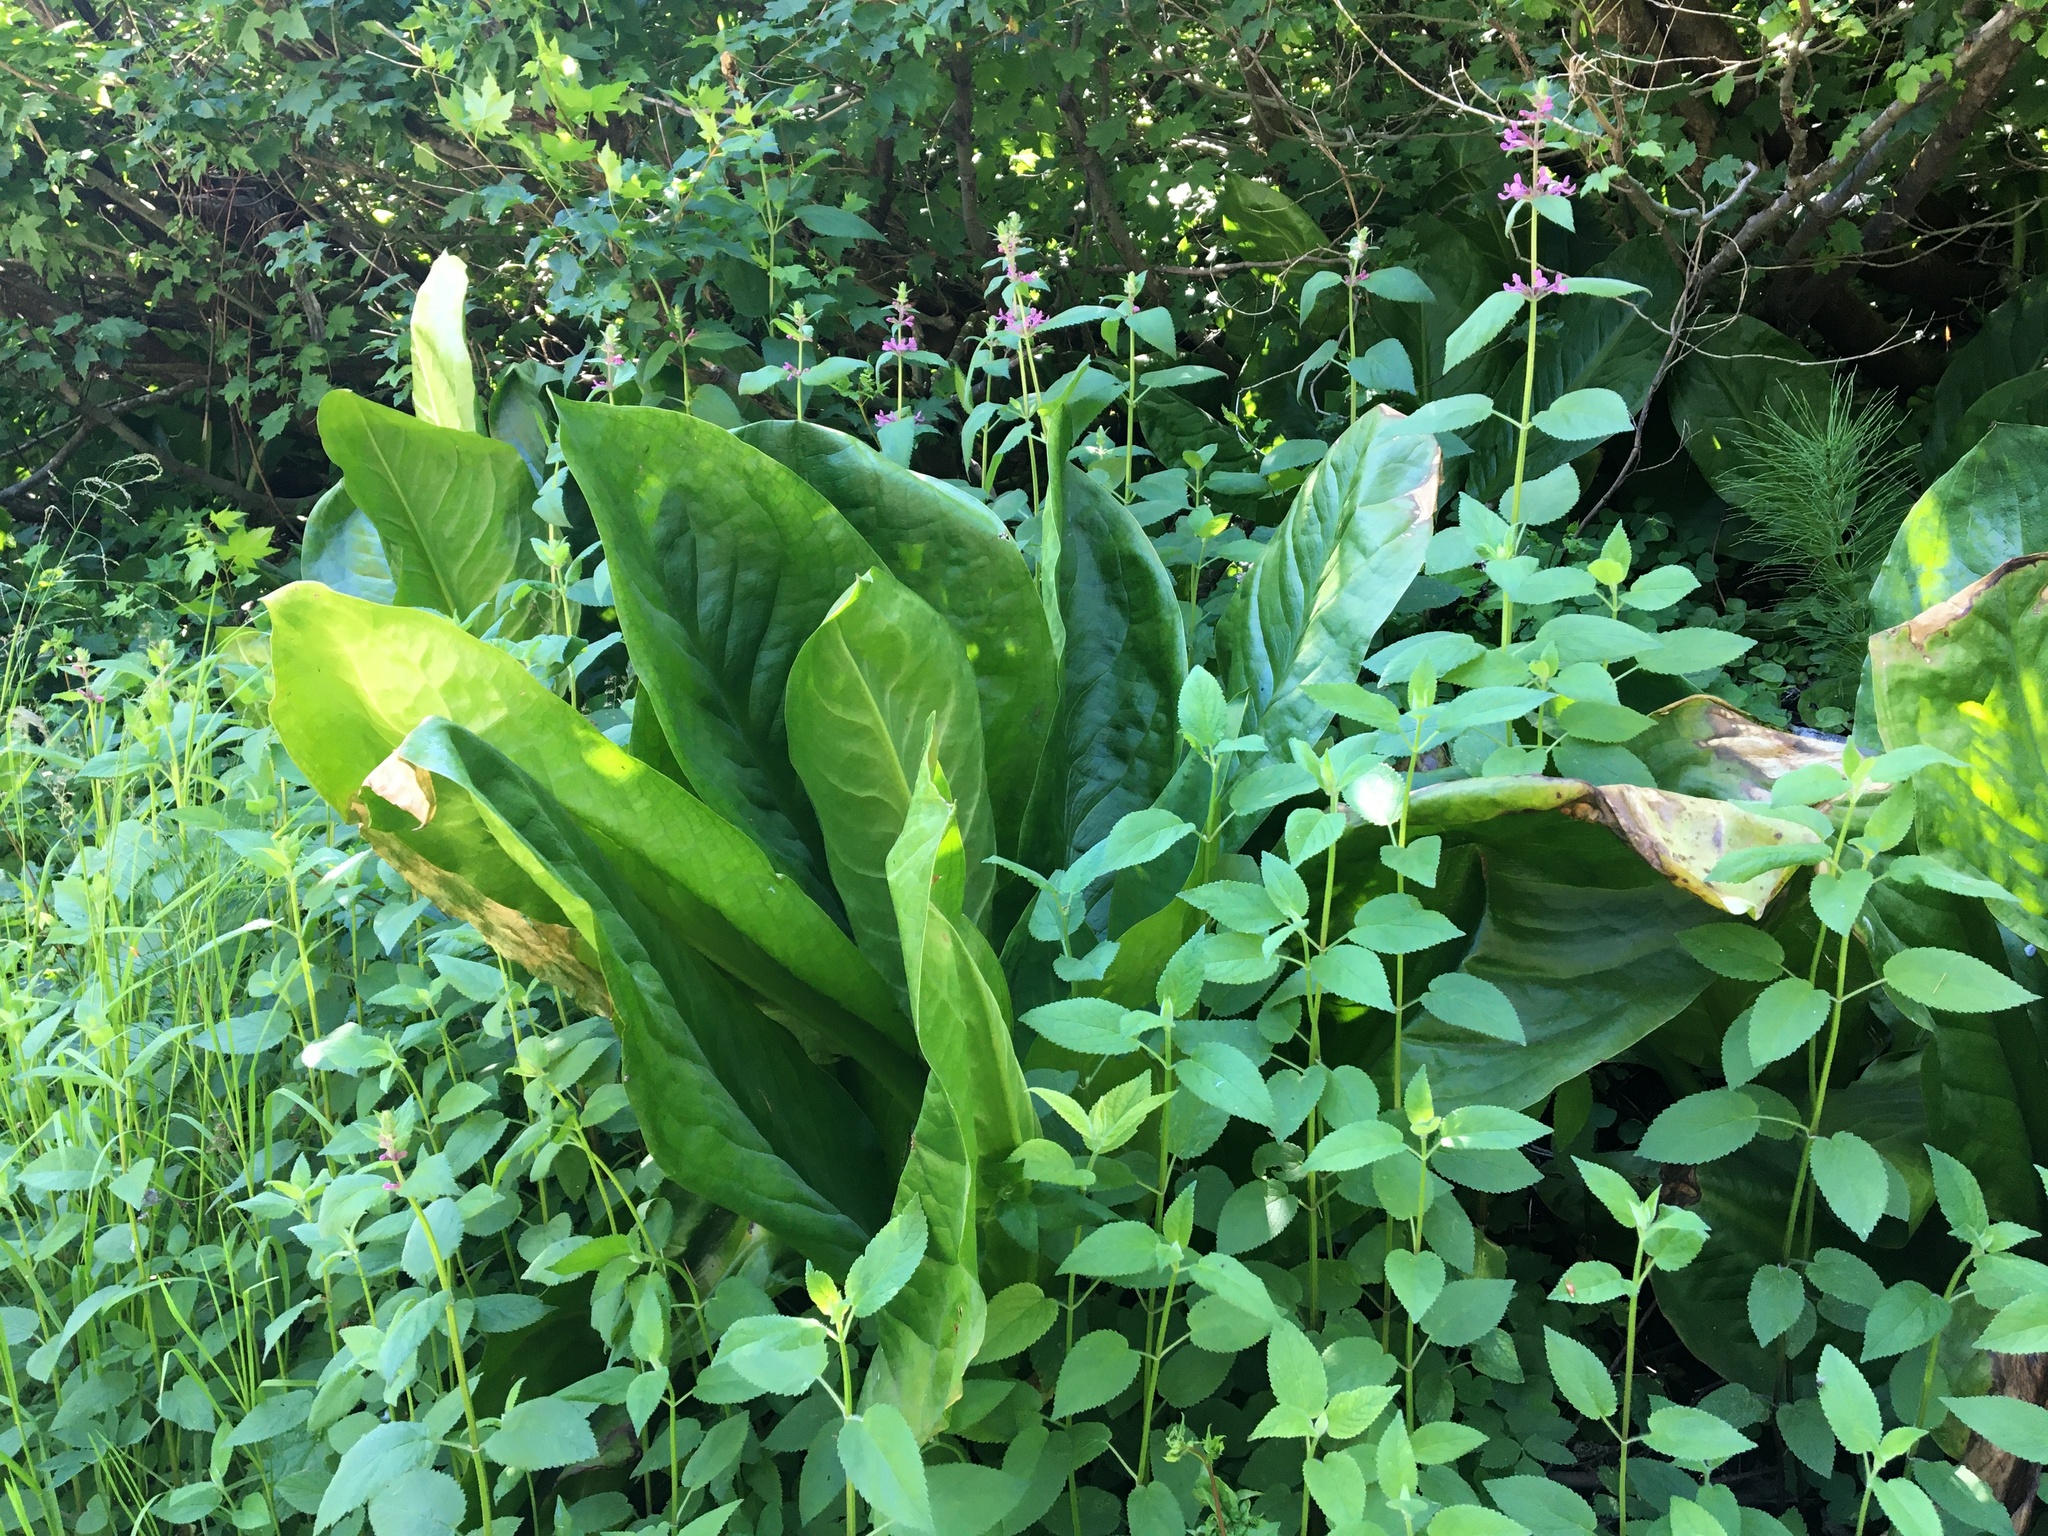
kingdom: Plantae
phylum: Tracheophyta
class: Liliopsida
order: Alismatales
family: Araceae
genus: Lysichiton
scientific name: Lysichiton americanus
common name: American skunk cabbage
